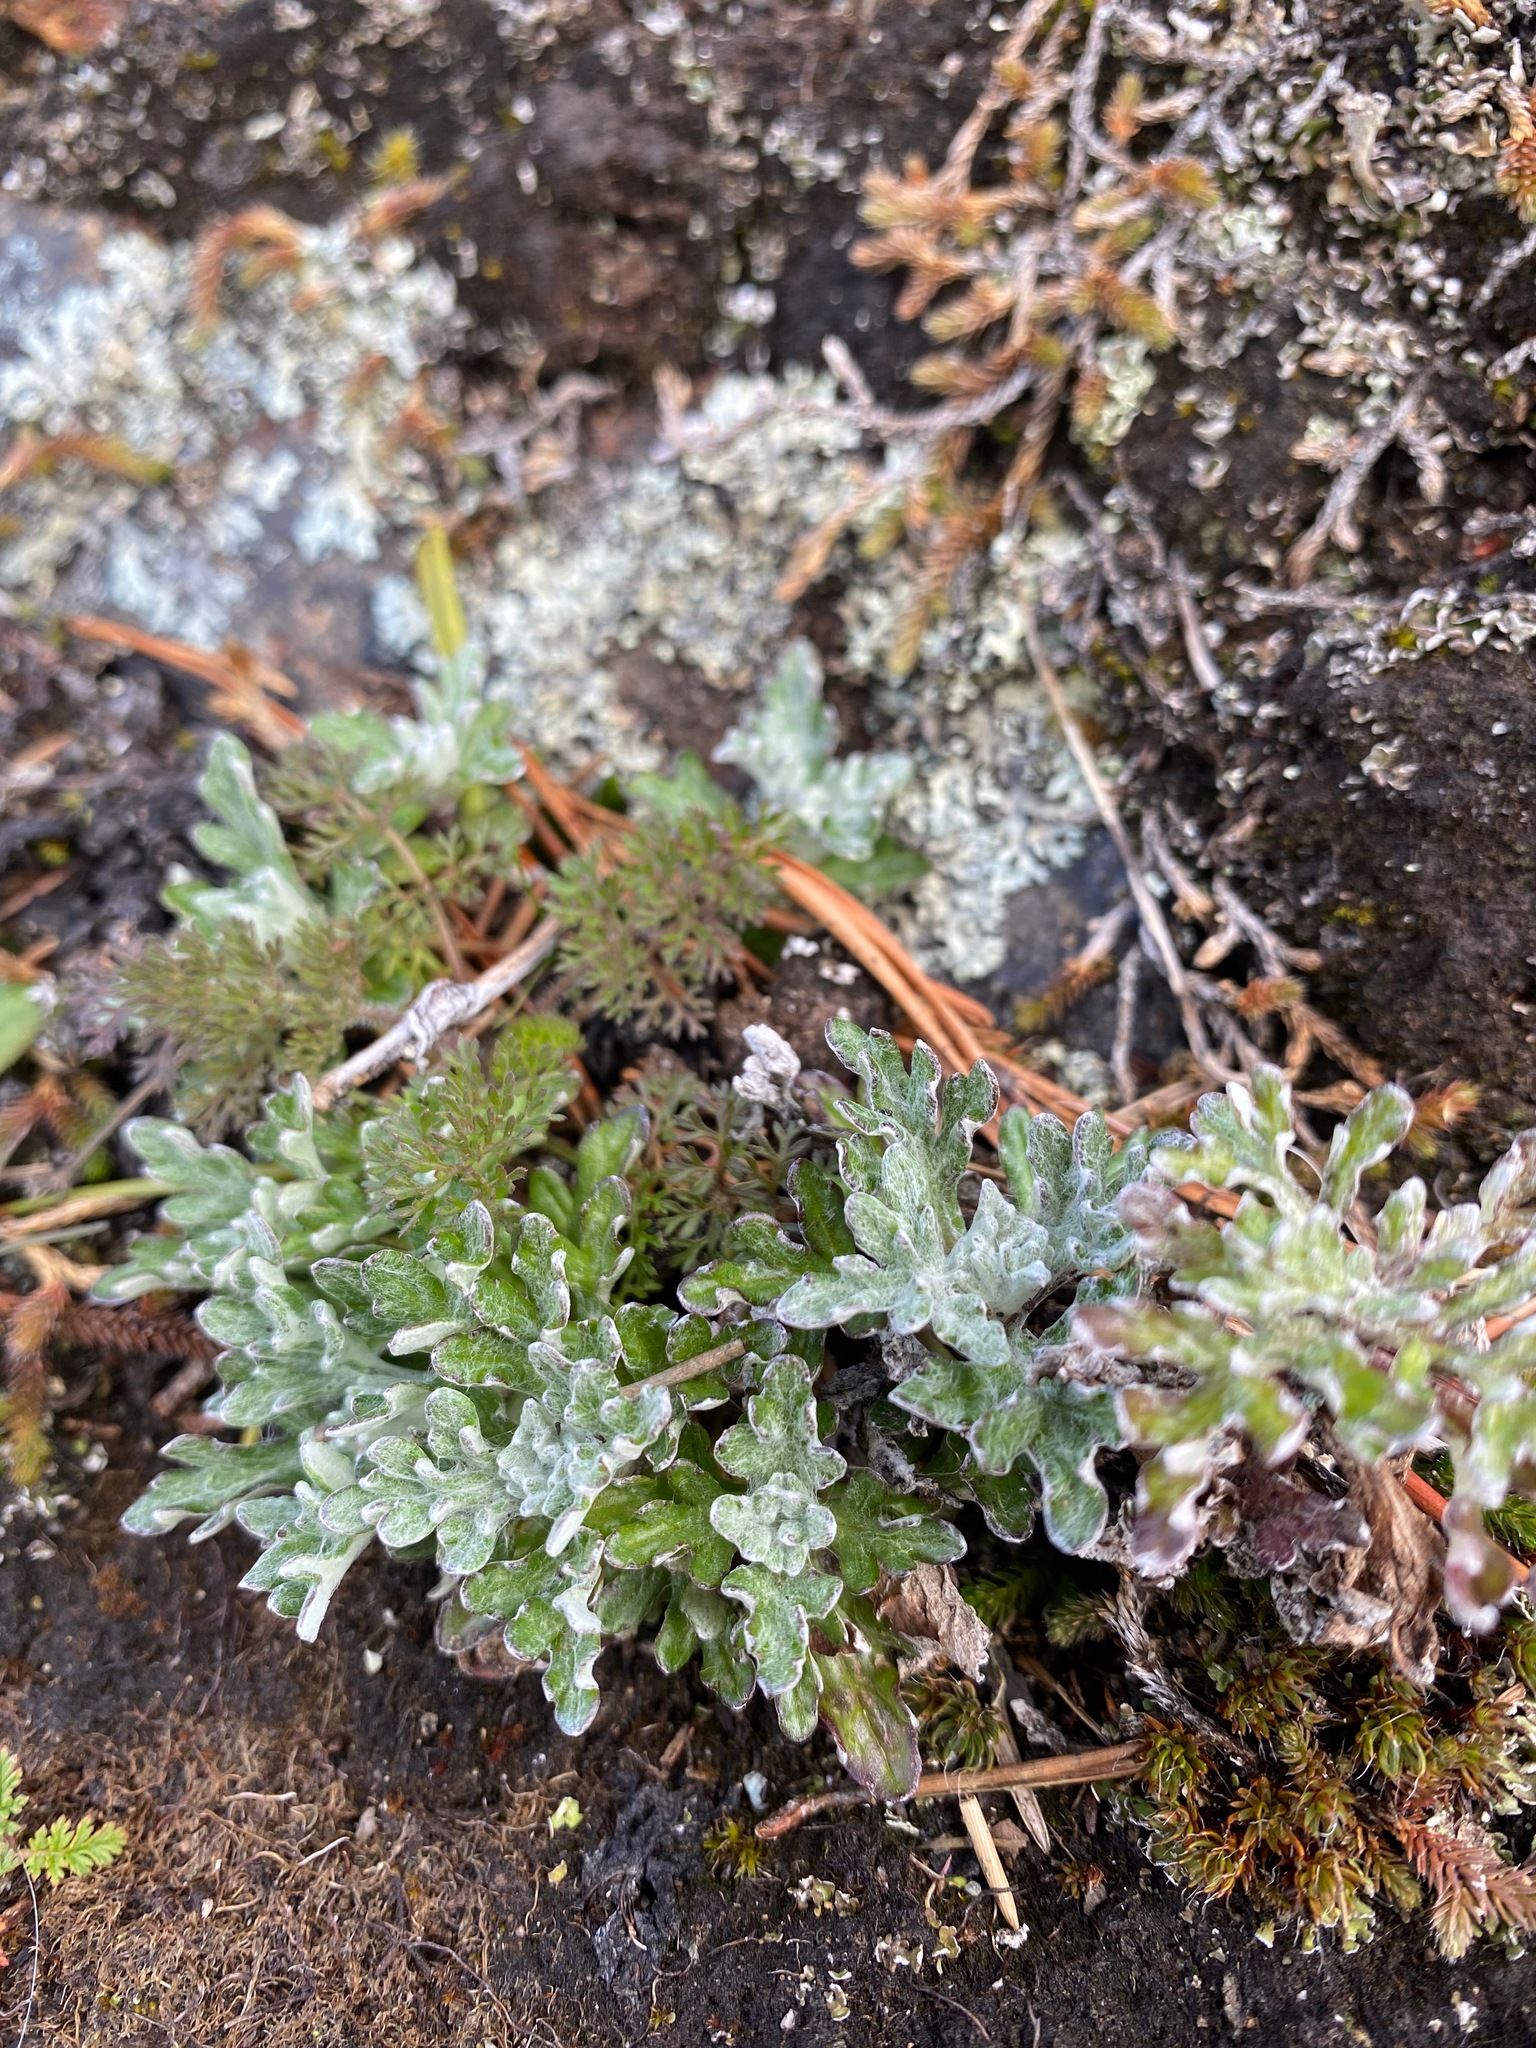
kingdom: Plantae
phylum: Tracheophyta
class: Magnoliopsida
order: Asterales
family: Asteraceae
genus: Eriophyllum
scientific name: Eriophyllum lanatum
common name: Common woolly-sunflower
